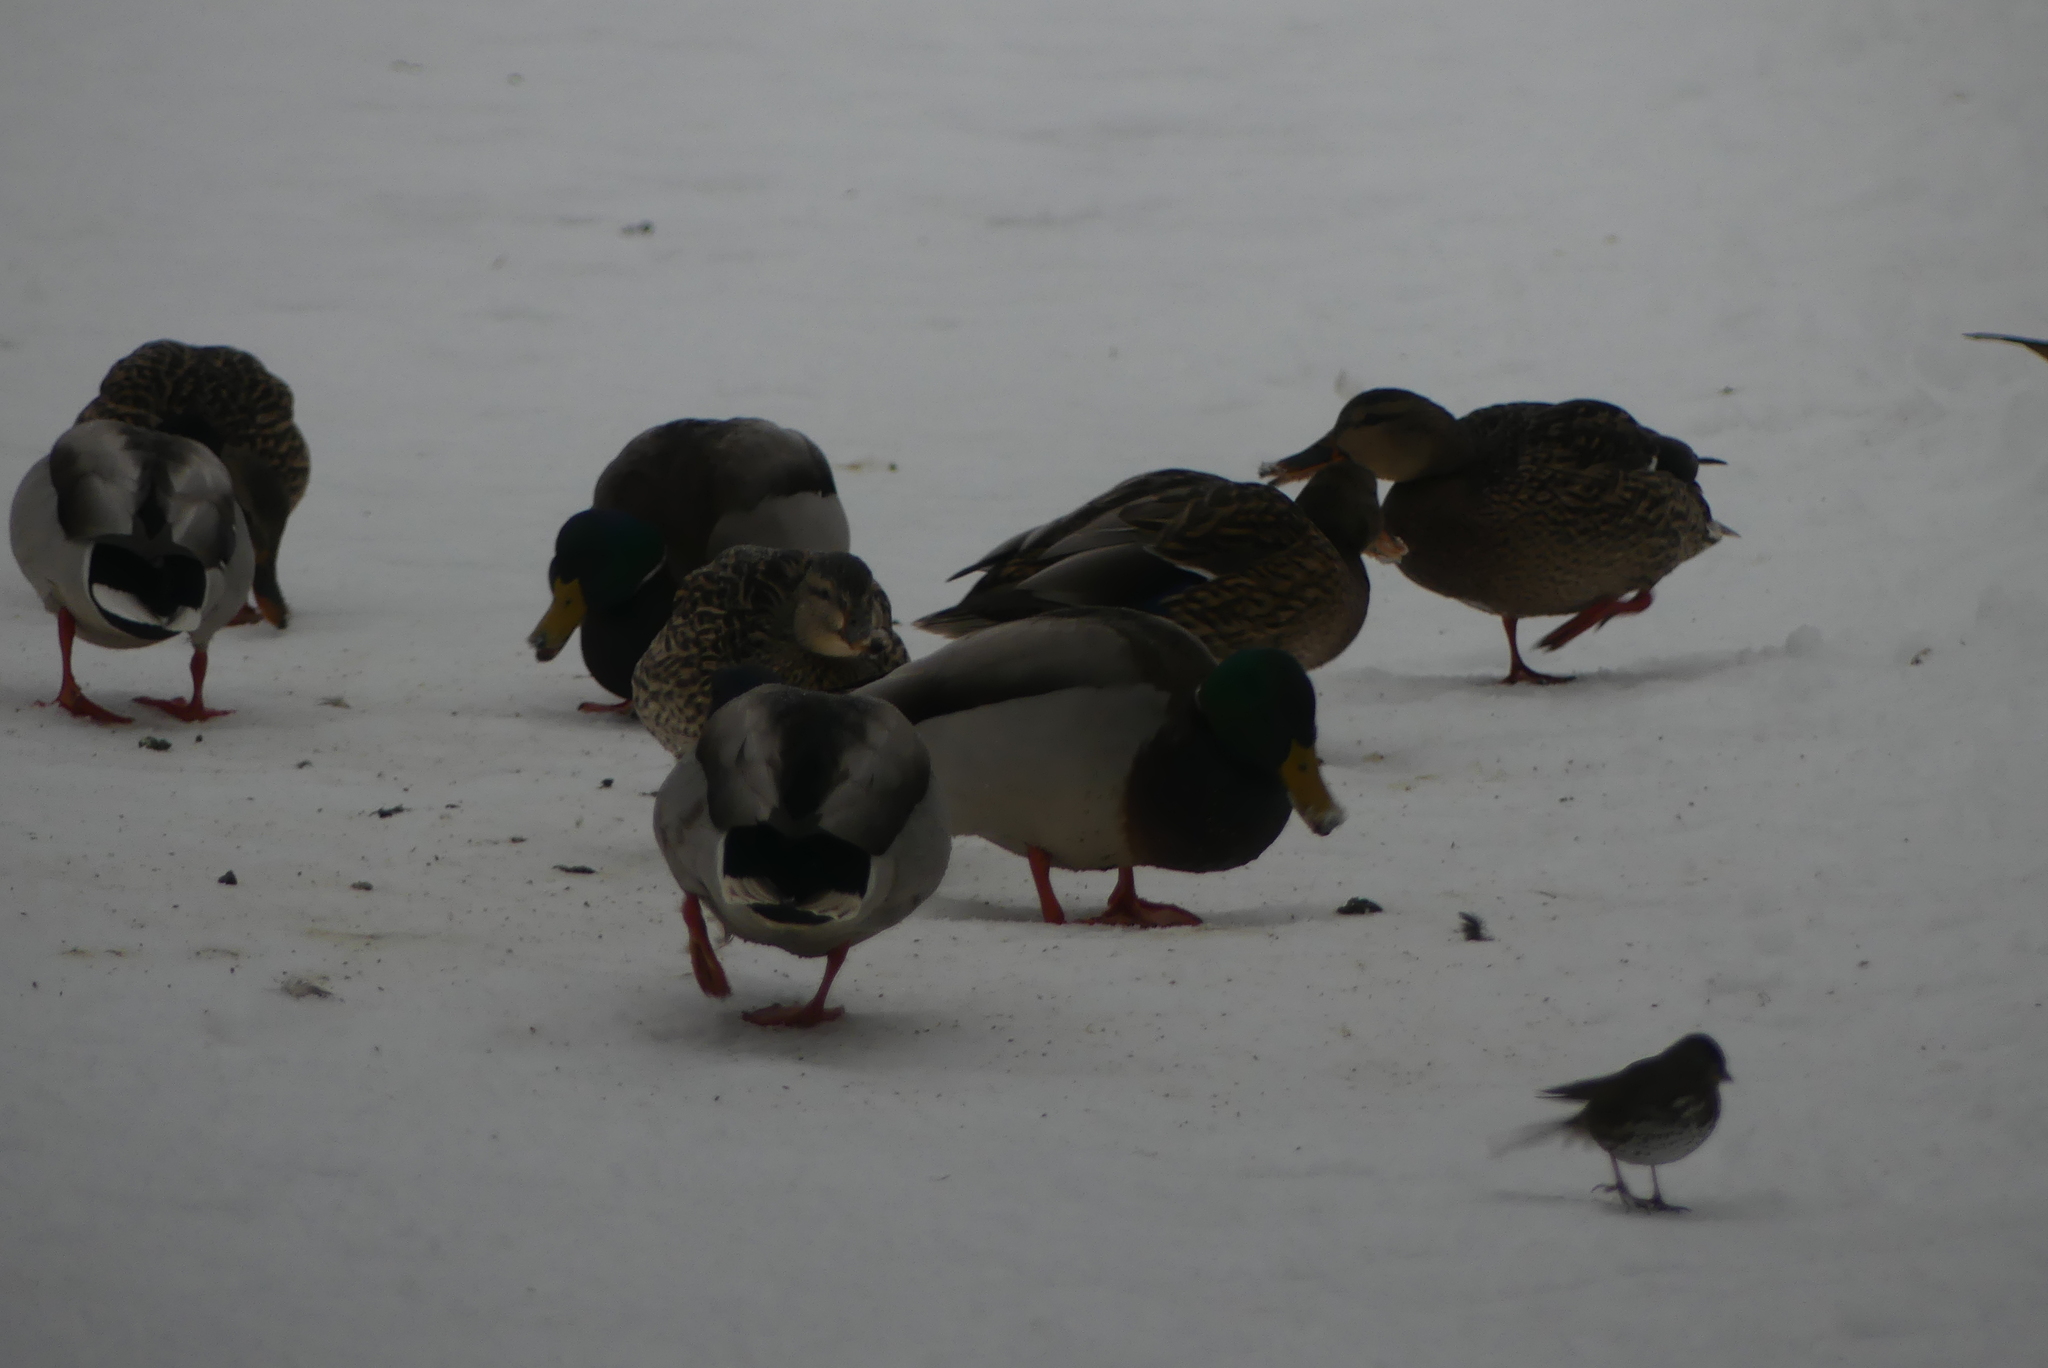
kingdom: Animalia
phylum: Chordata
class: Aves
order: Anseriformes
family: Anatidae
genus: Anas
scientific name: Anas platyrhynchos
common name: Mallard
